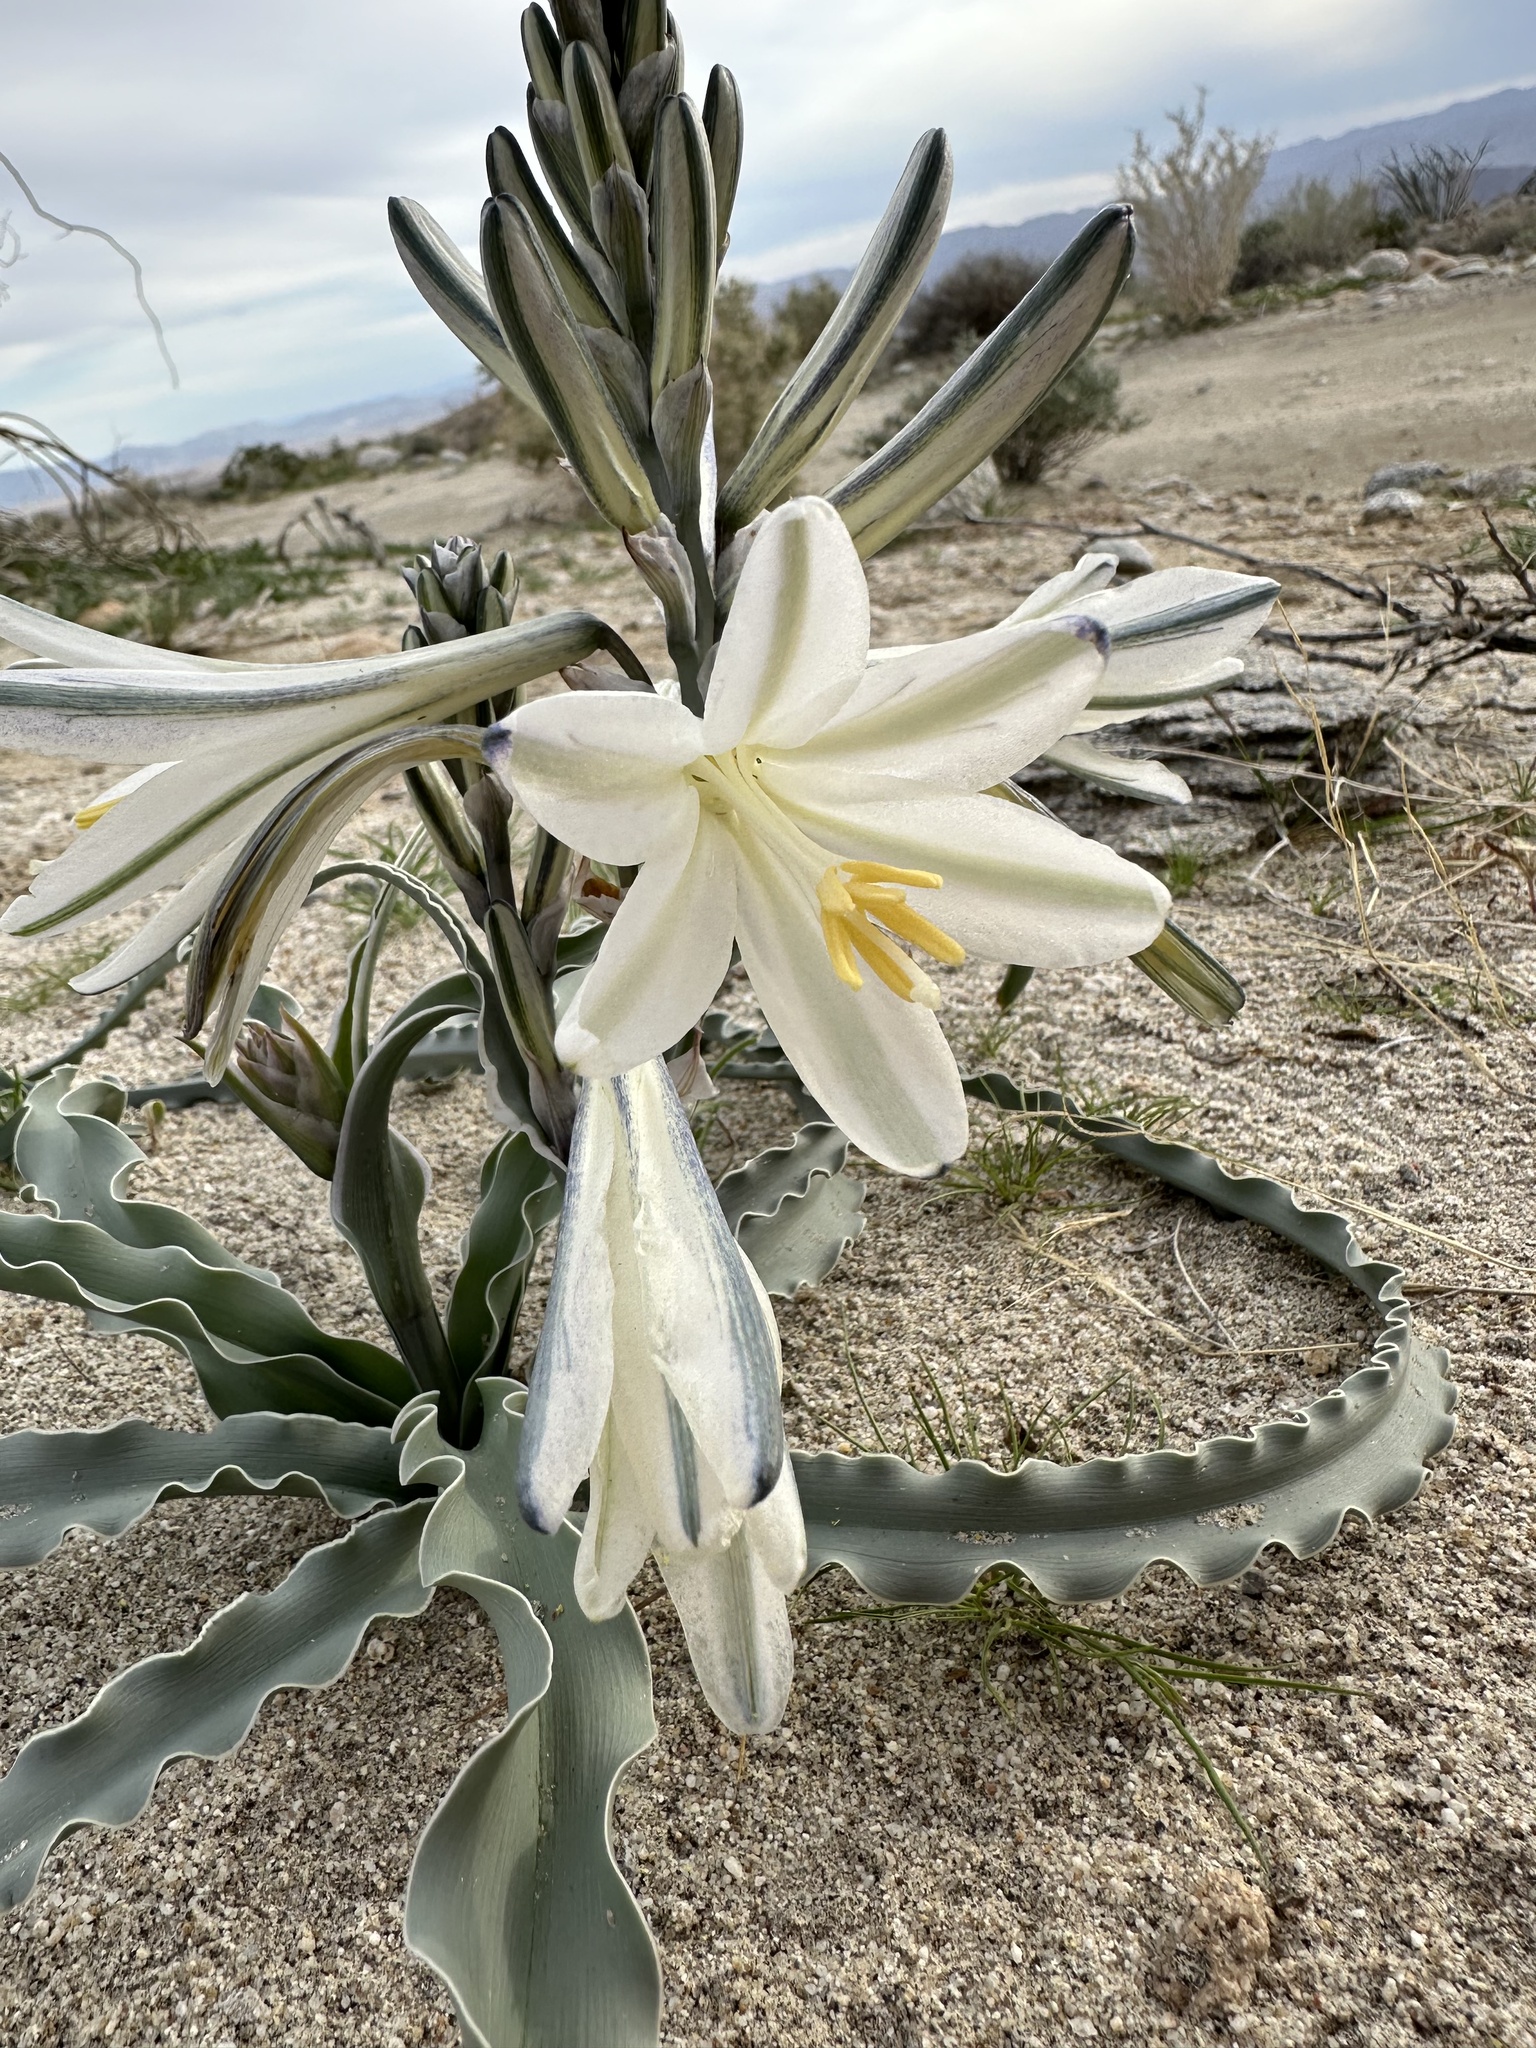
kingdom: Plantae
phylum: Tracheophyta
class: Liliopsida
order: Asparagales
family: Asparagaceae
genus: Hesperocallis
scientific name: Hesperocallis undulata
